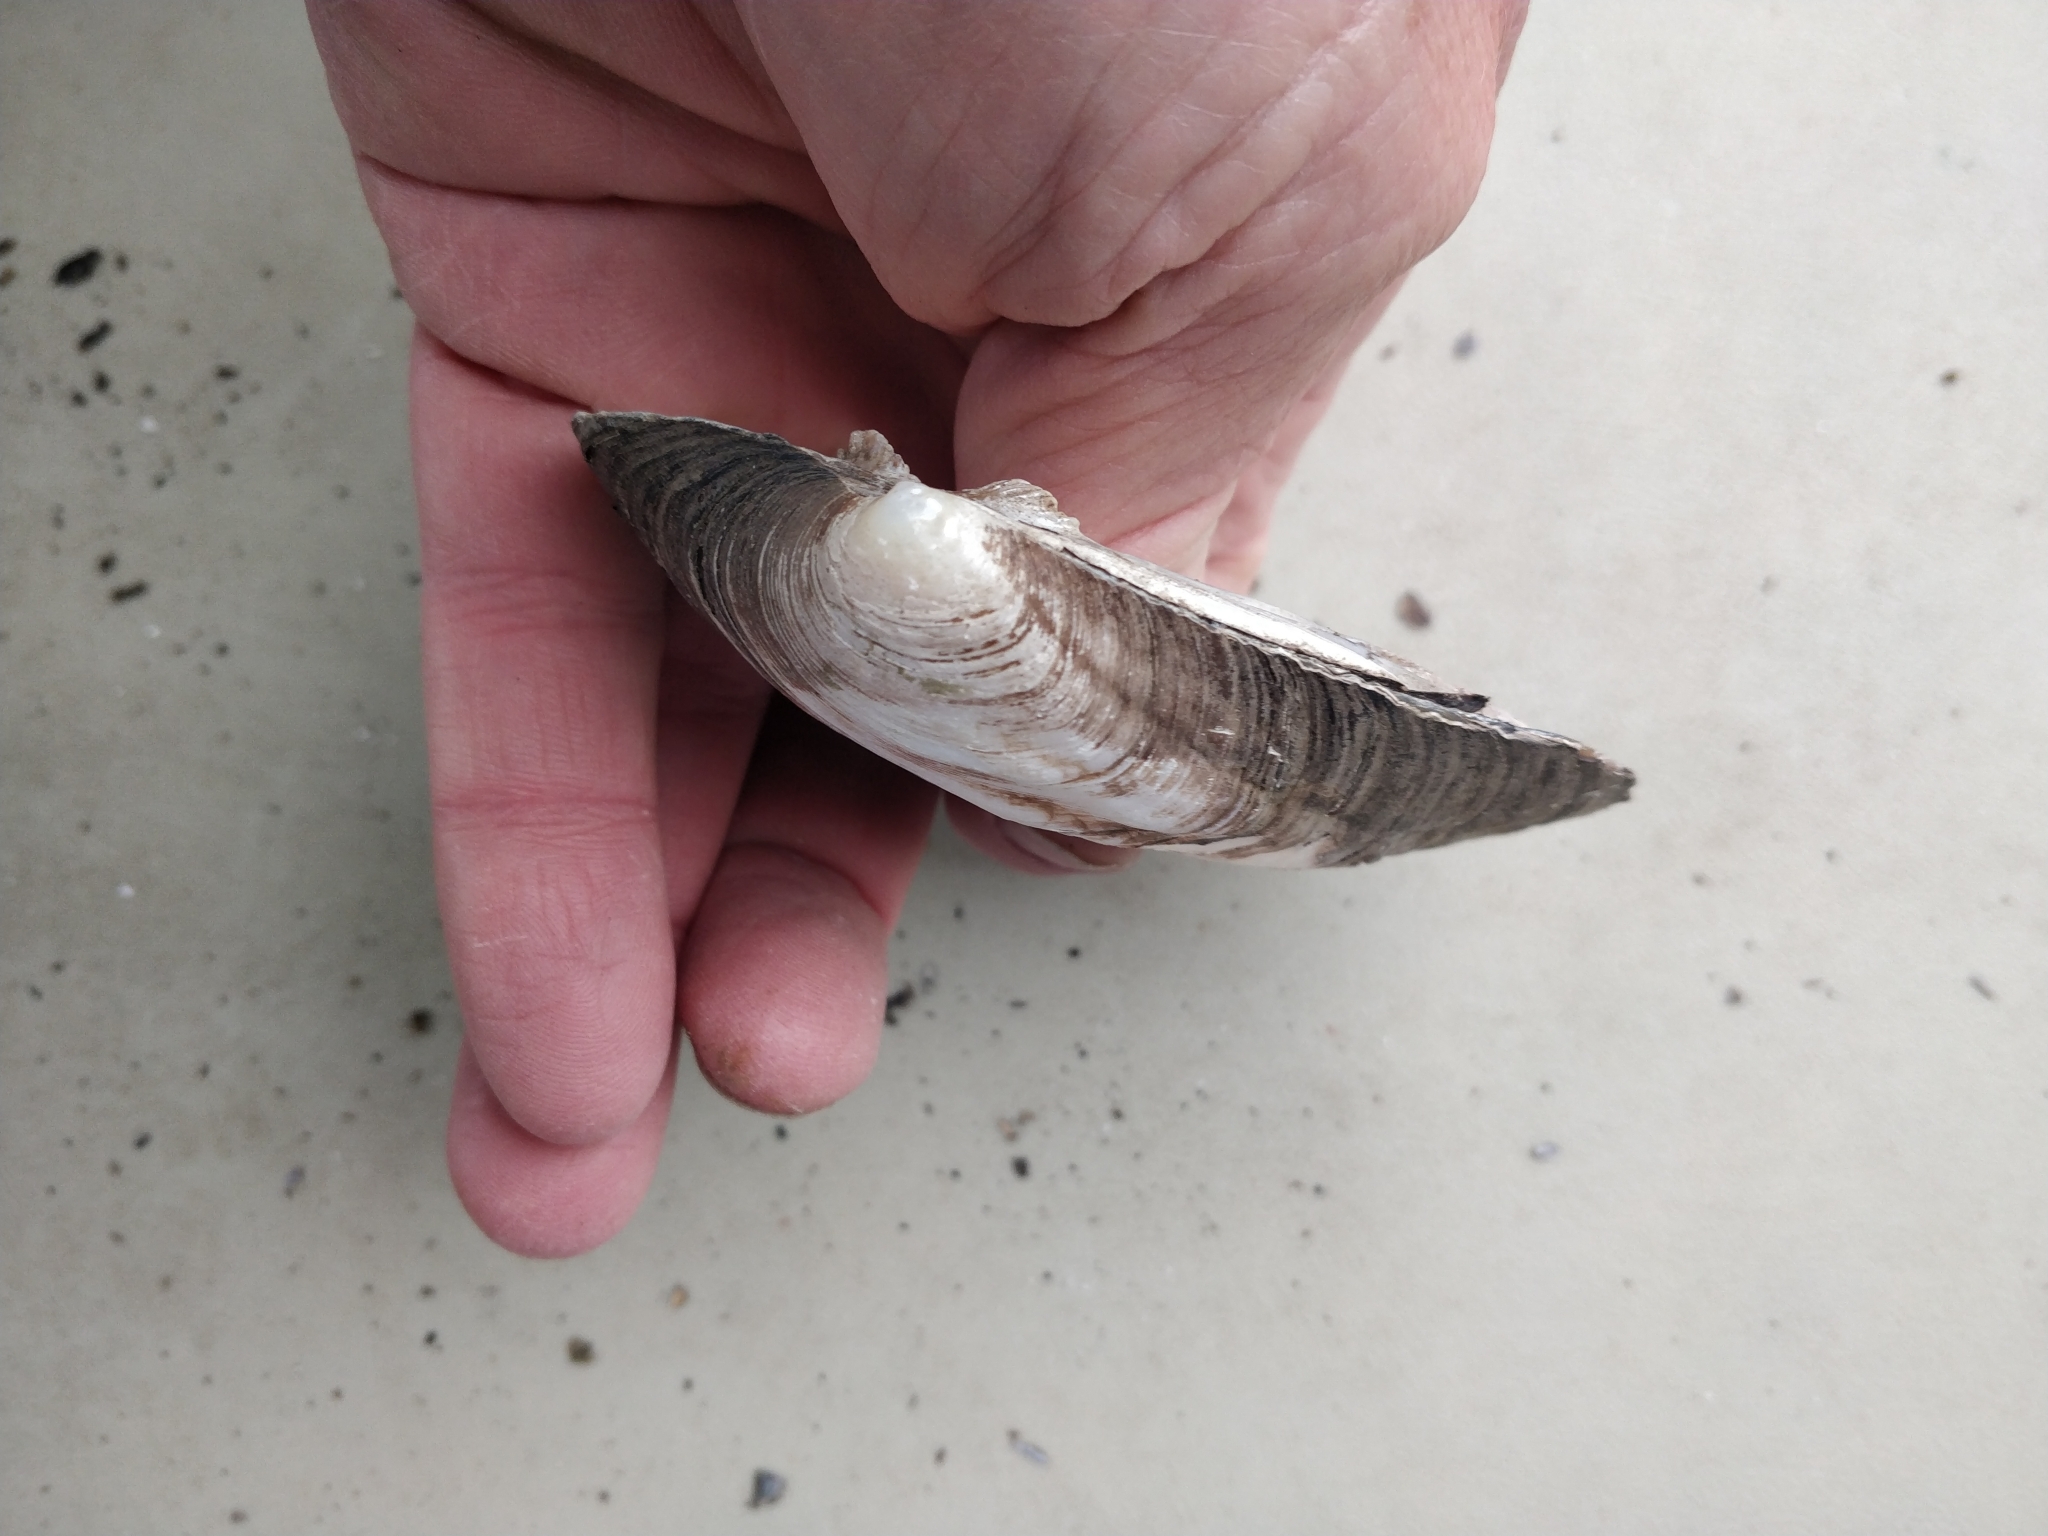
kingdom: Animalia
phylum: Mollusca
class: Bivalvia
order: Unionida
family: Unionidae
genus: Amblema
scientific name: Amblema plicata
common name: Threeridge
